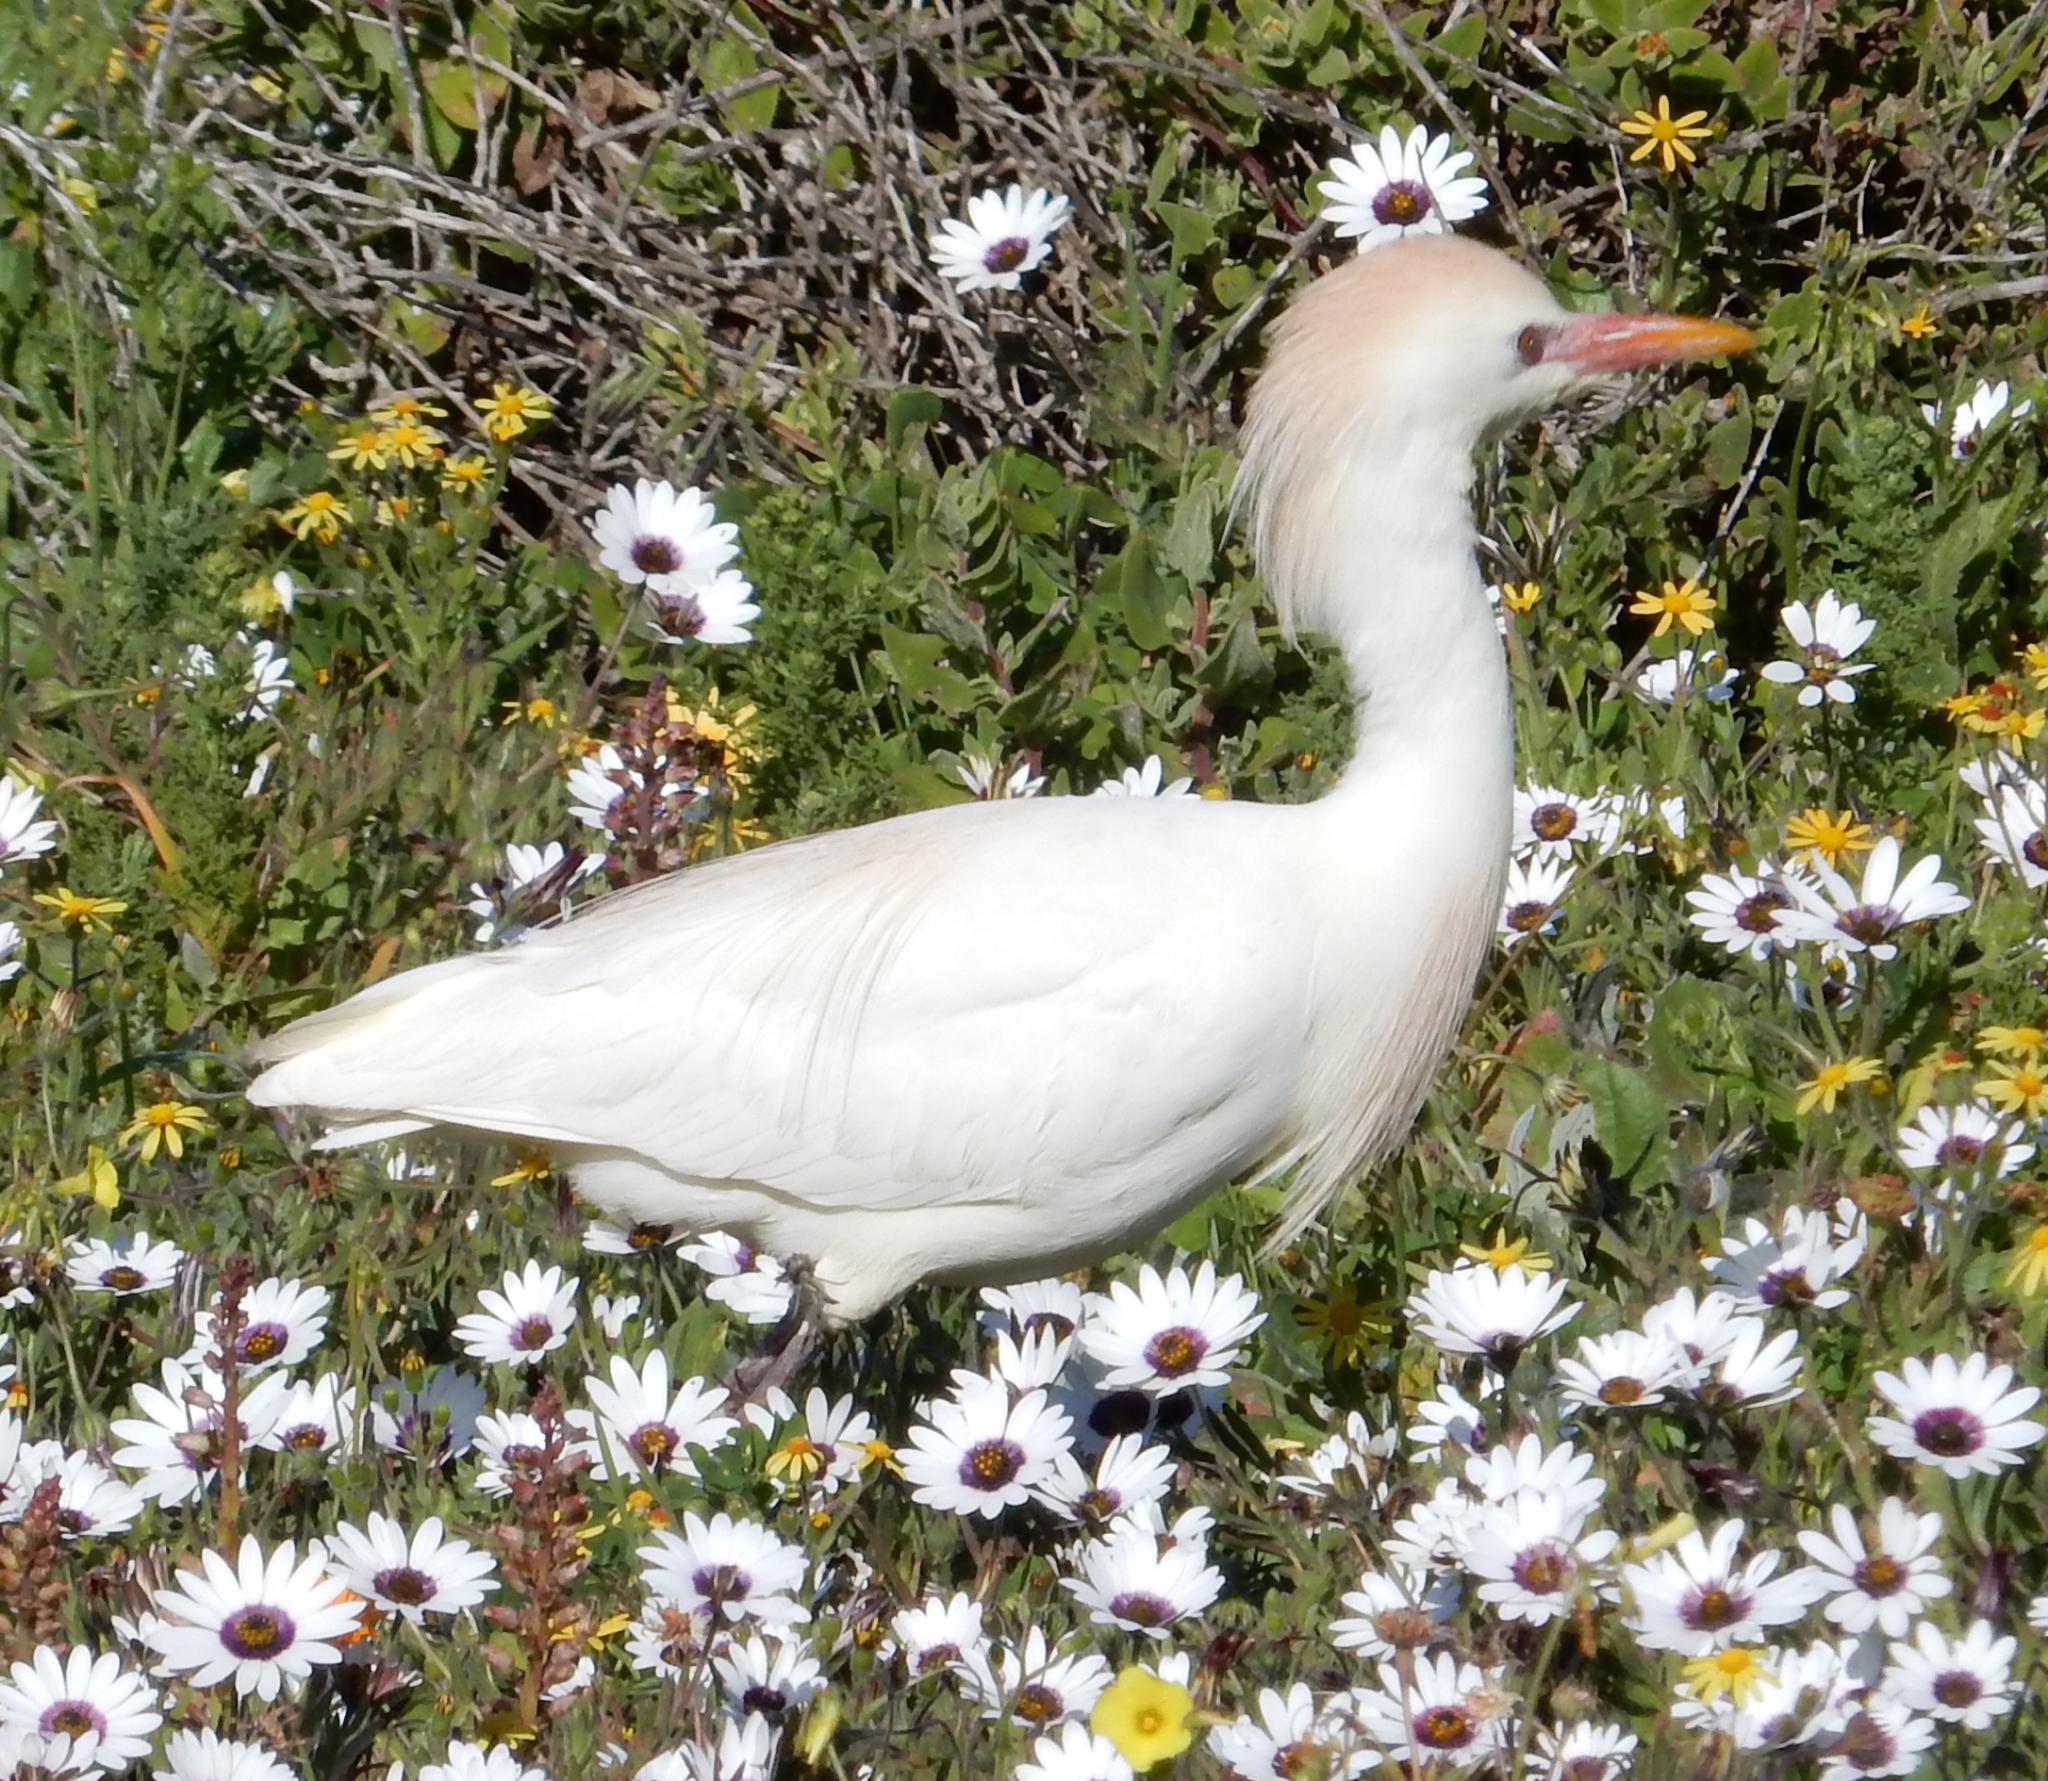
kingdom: Animalia
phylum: Chordata
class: Aves
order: Pelecaniformes
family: Ardeidae
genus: Bubulcus
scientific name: Bubulcus ibis
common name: Cattle egret
